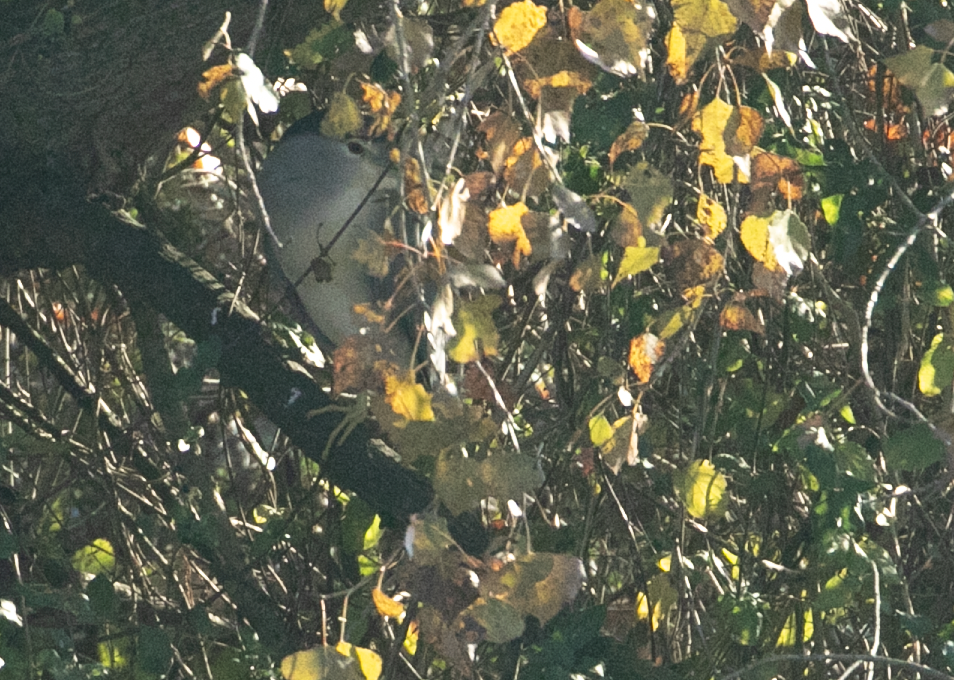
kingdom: Animalia
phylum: Chordata
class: Aves
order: Pelecaniformes
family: Ardeidae
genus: Nycticorax
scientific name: Nycticorax nycticorax
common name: Black-crowned night heron
